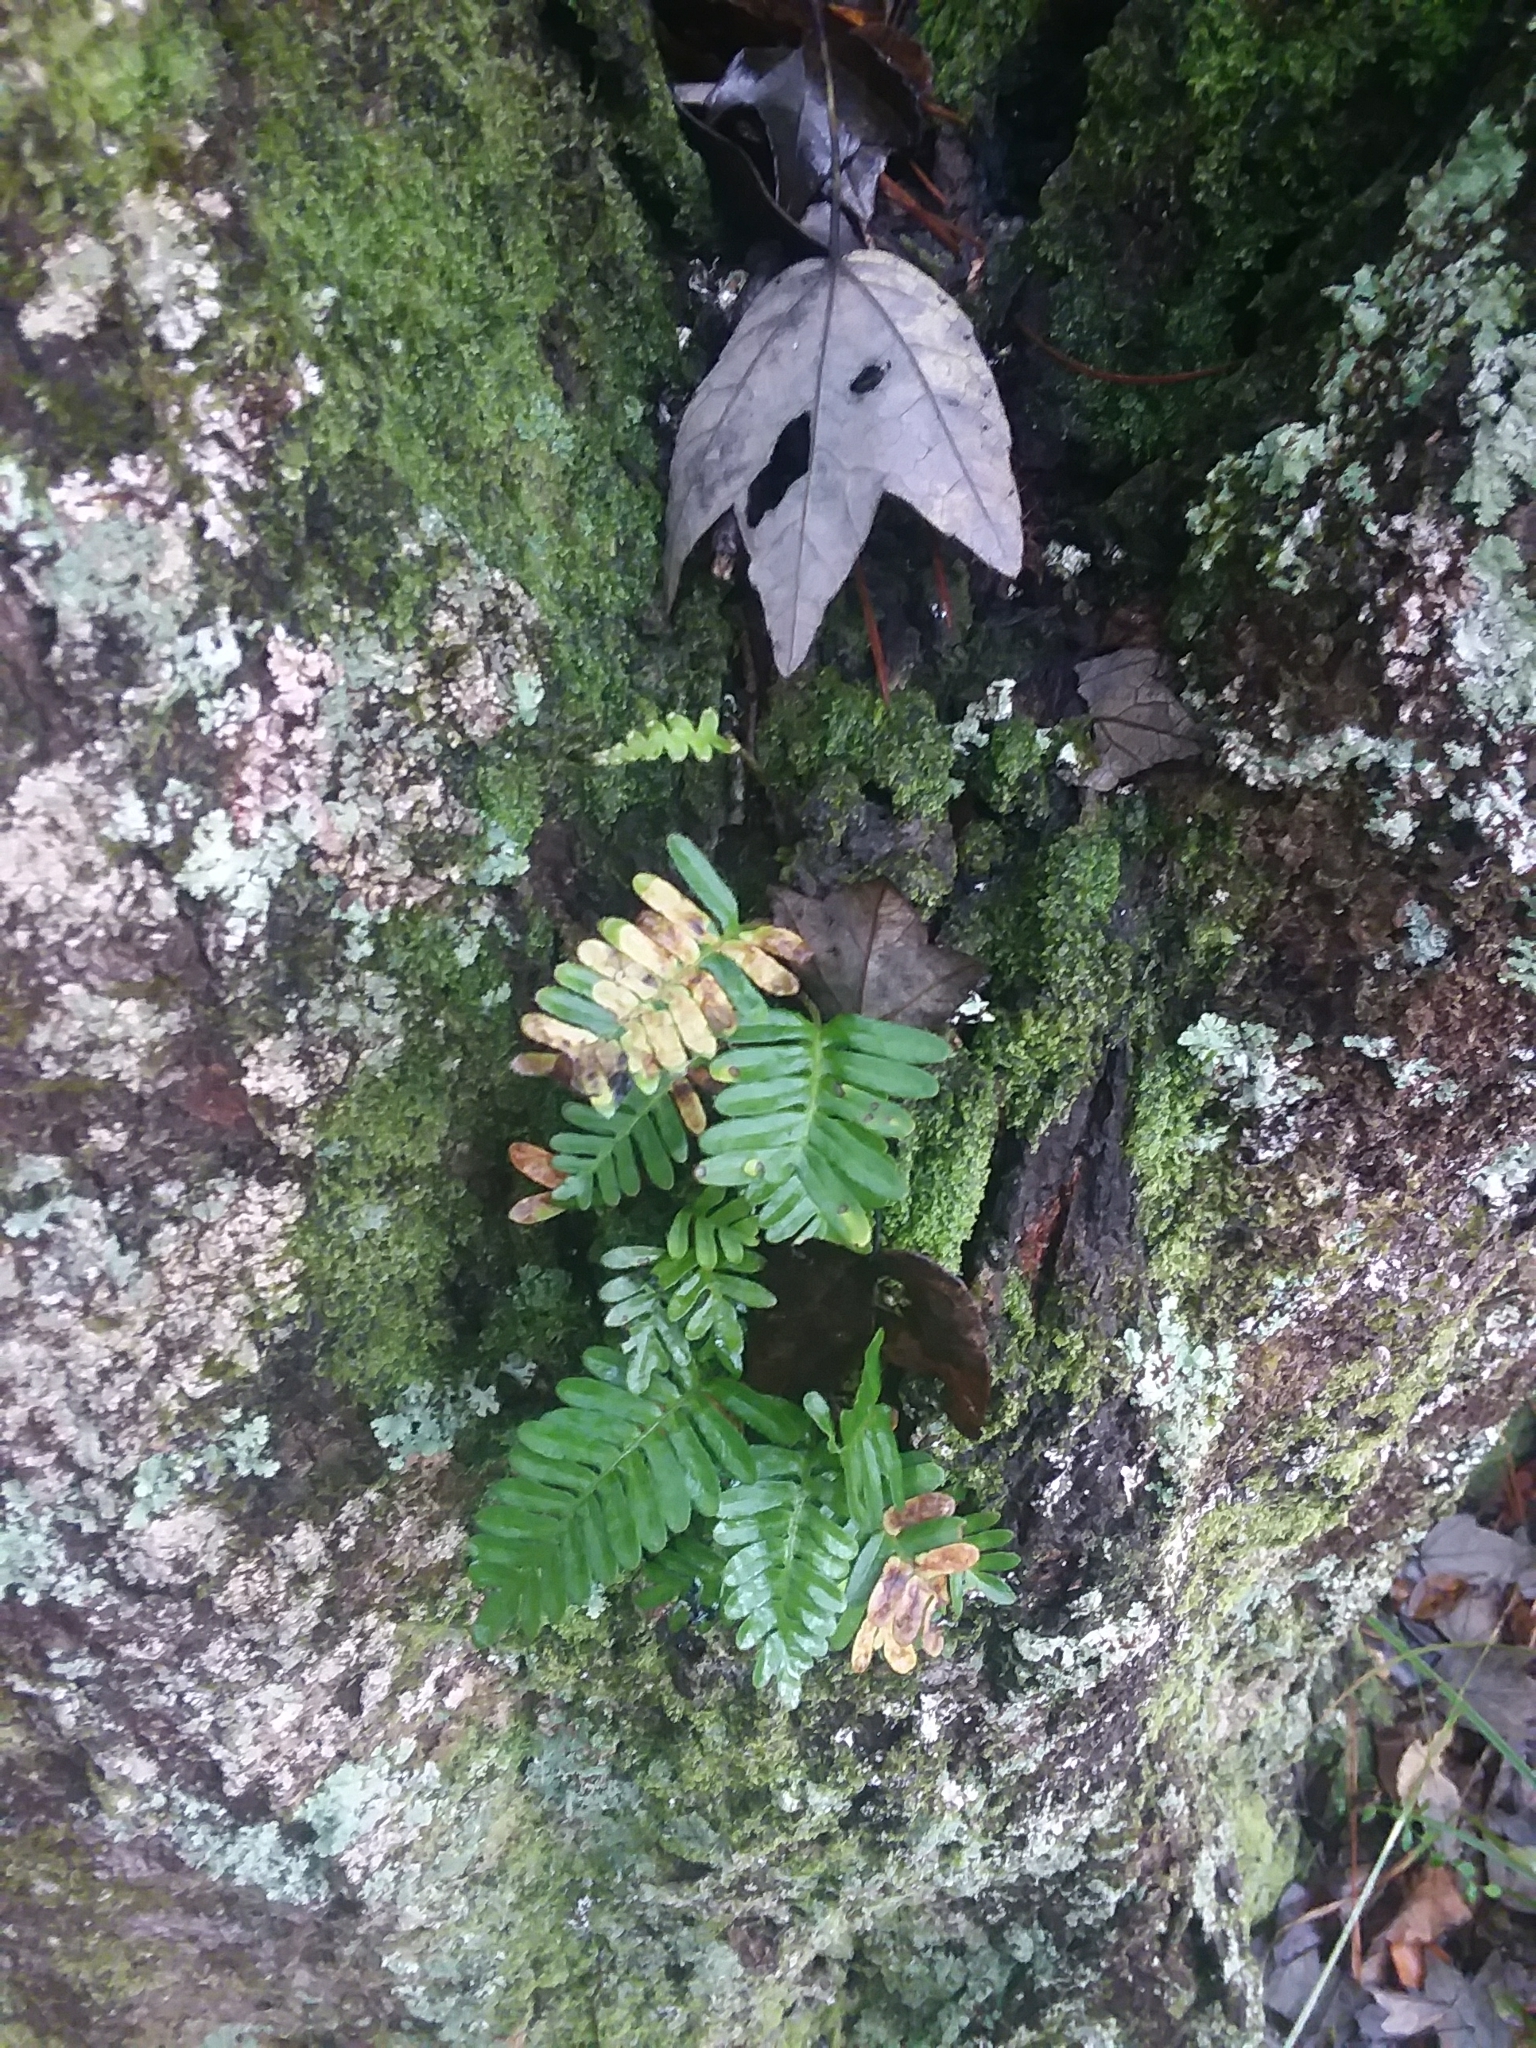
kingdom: Plantae
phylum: Tracheophyta
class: Polypodiopsida
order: Polypodiales
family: Polypodiaceae
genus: Pleopeltis
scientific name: Pleopeltis michauxiana
